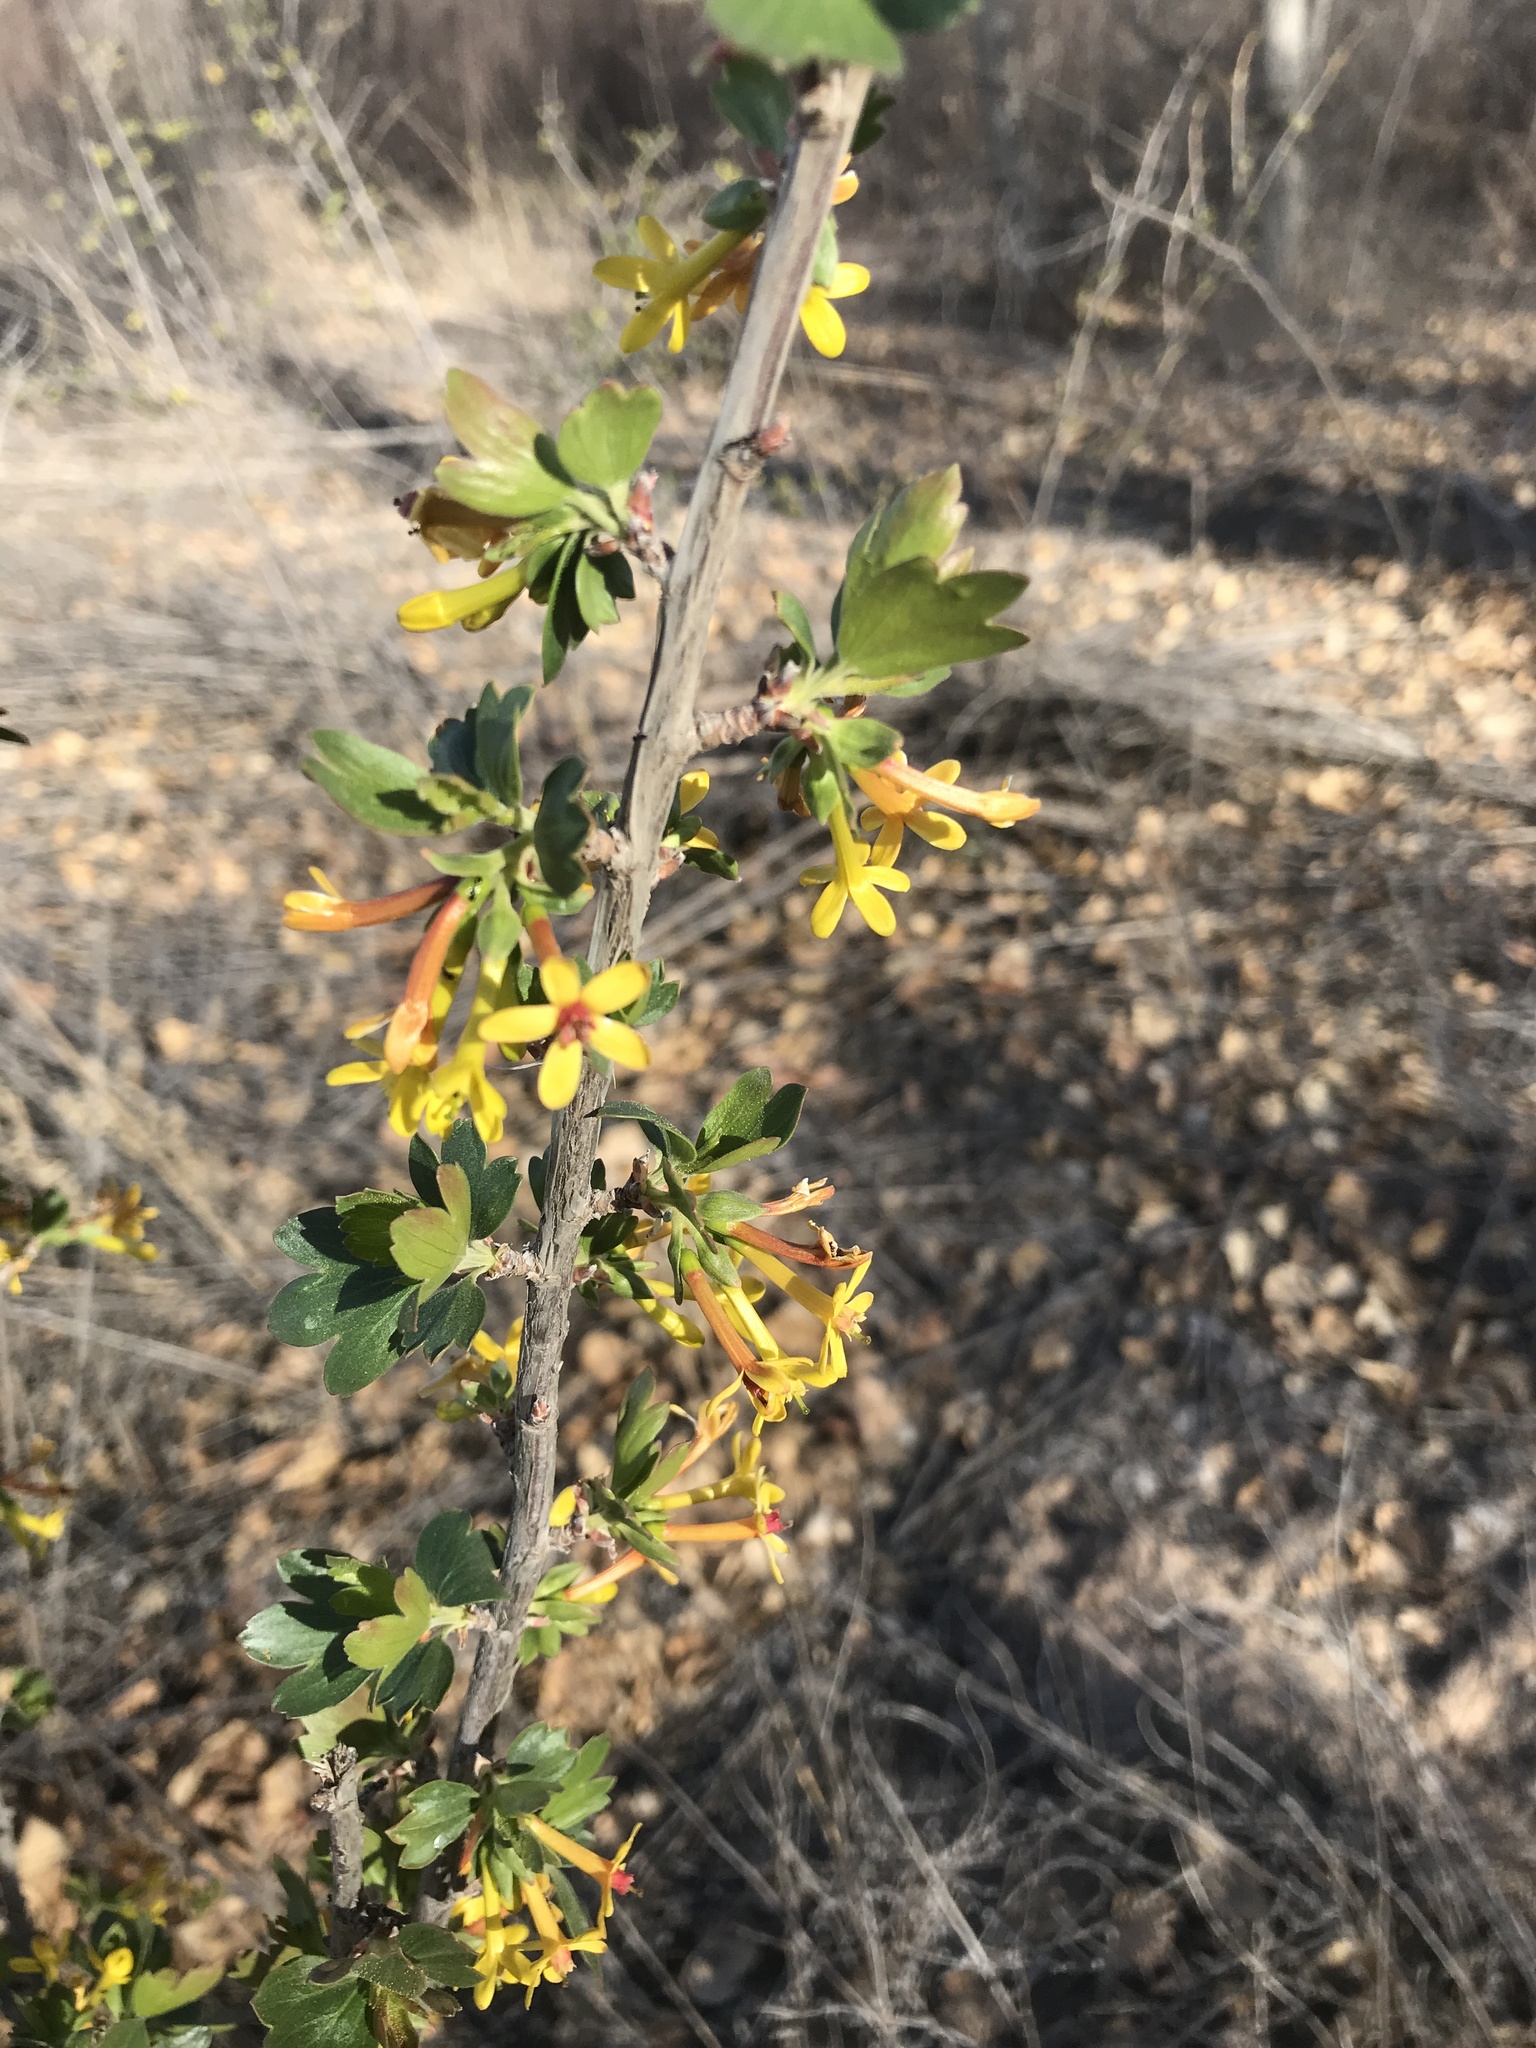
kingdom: Plantae
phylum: Tracheophyta
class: Magnoliopsida
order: Saxifragales
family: Grossulariaceae
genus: Ribes
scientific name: Ribes aureum
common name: Golden currant
